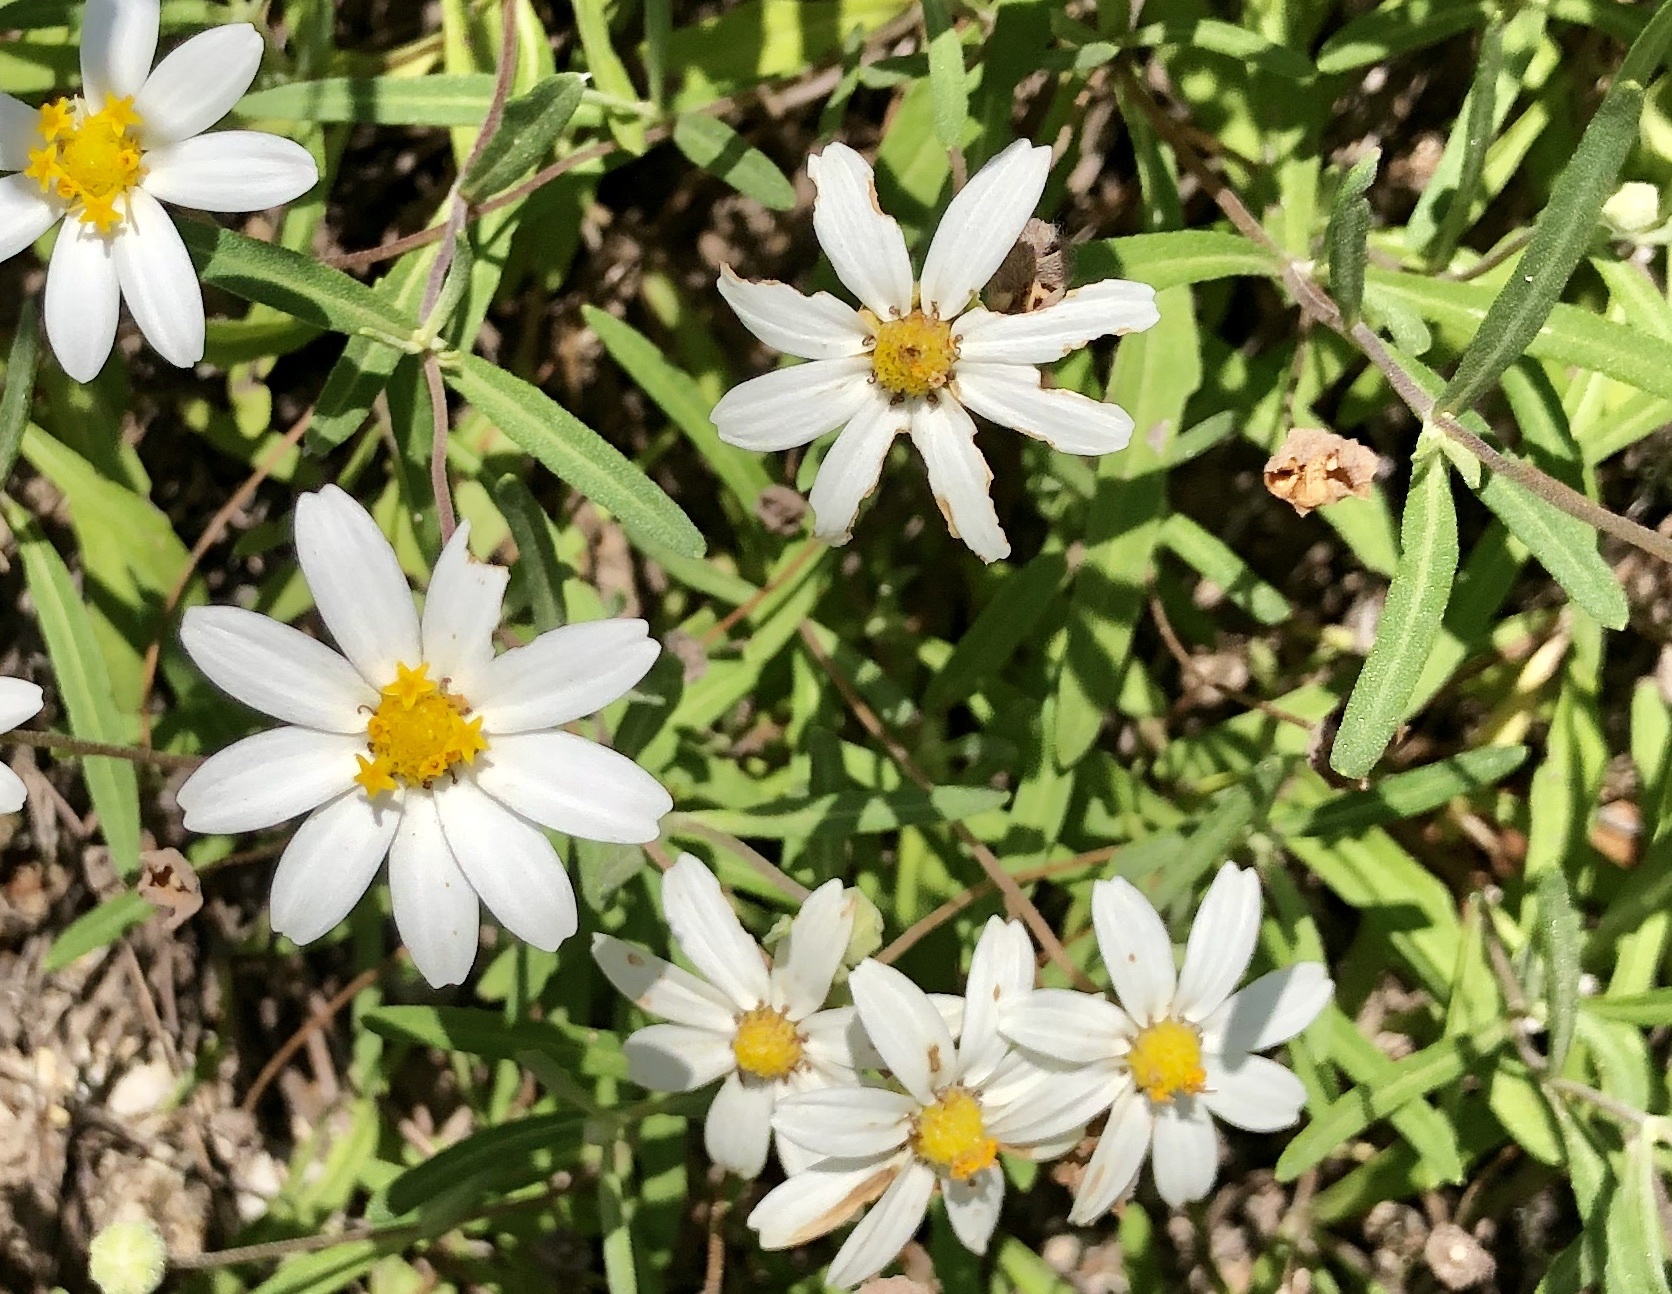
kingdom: Plantae
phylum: Tracheophyta
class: Magnoliopsida
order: Asterales
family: Asteraceae
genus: Melampodium
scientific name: Melampodium leucanthum
